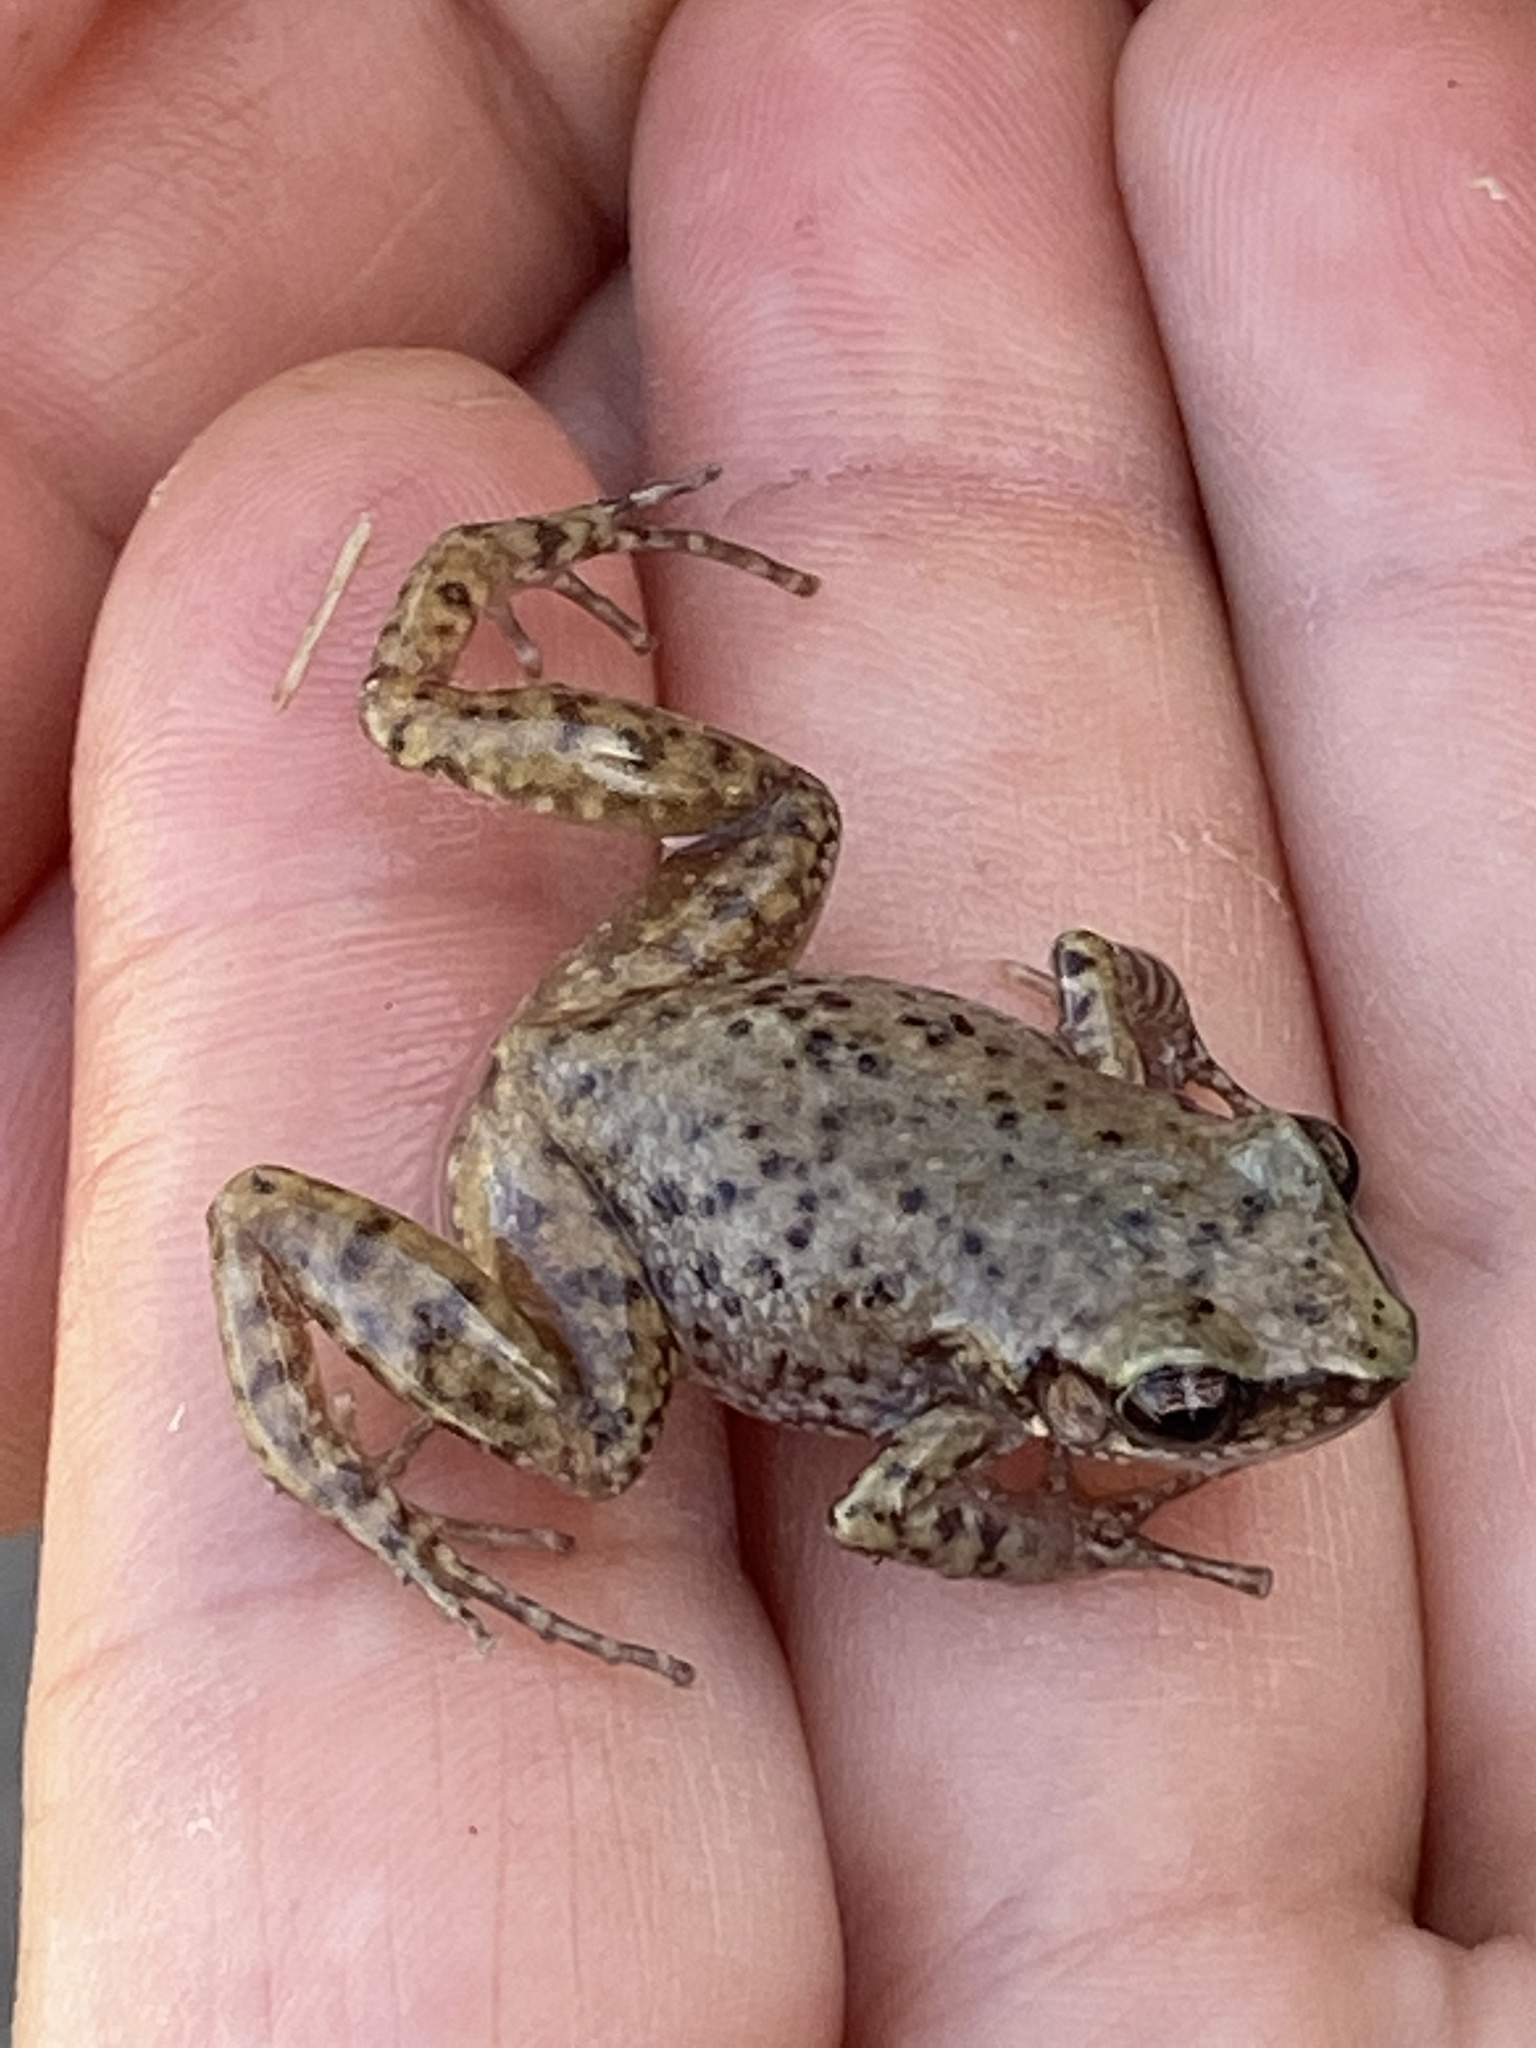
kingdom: Animalia
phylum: Chordata
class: Amphibia
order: Anura
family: Eleutherodactylidae
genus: Eleutherodactylus
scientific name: Eleutherodactylus campi
